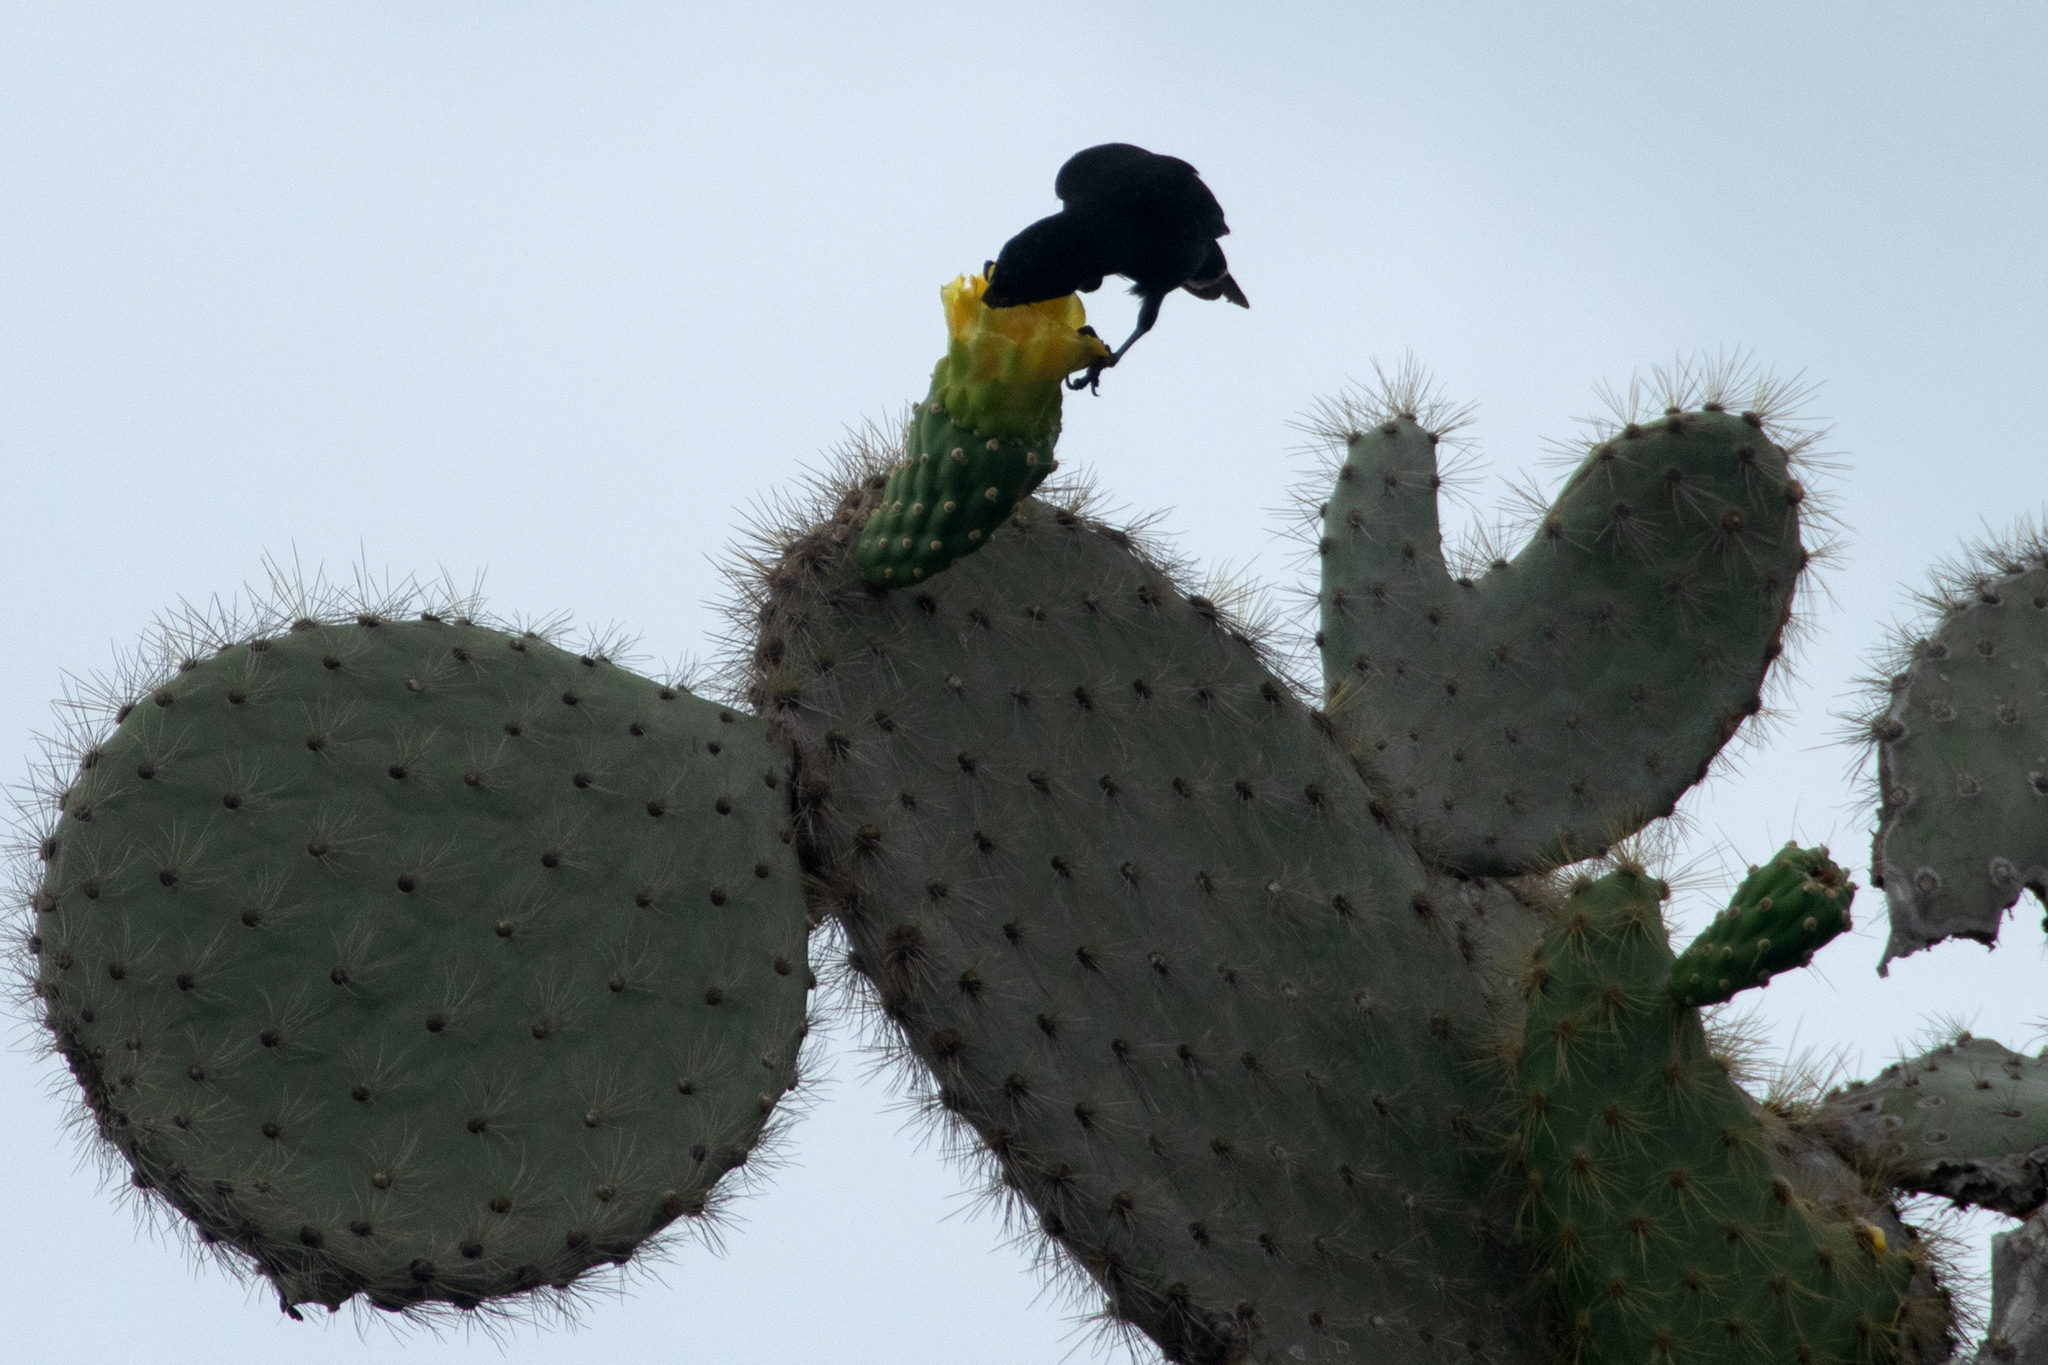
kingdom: Animalia
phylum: Chordata
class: Aves
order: Passeriformes
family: Thraupidae
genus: Geospiza
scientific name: Geospiza scandens
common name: Common cactus-finch
